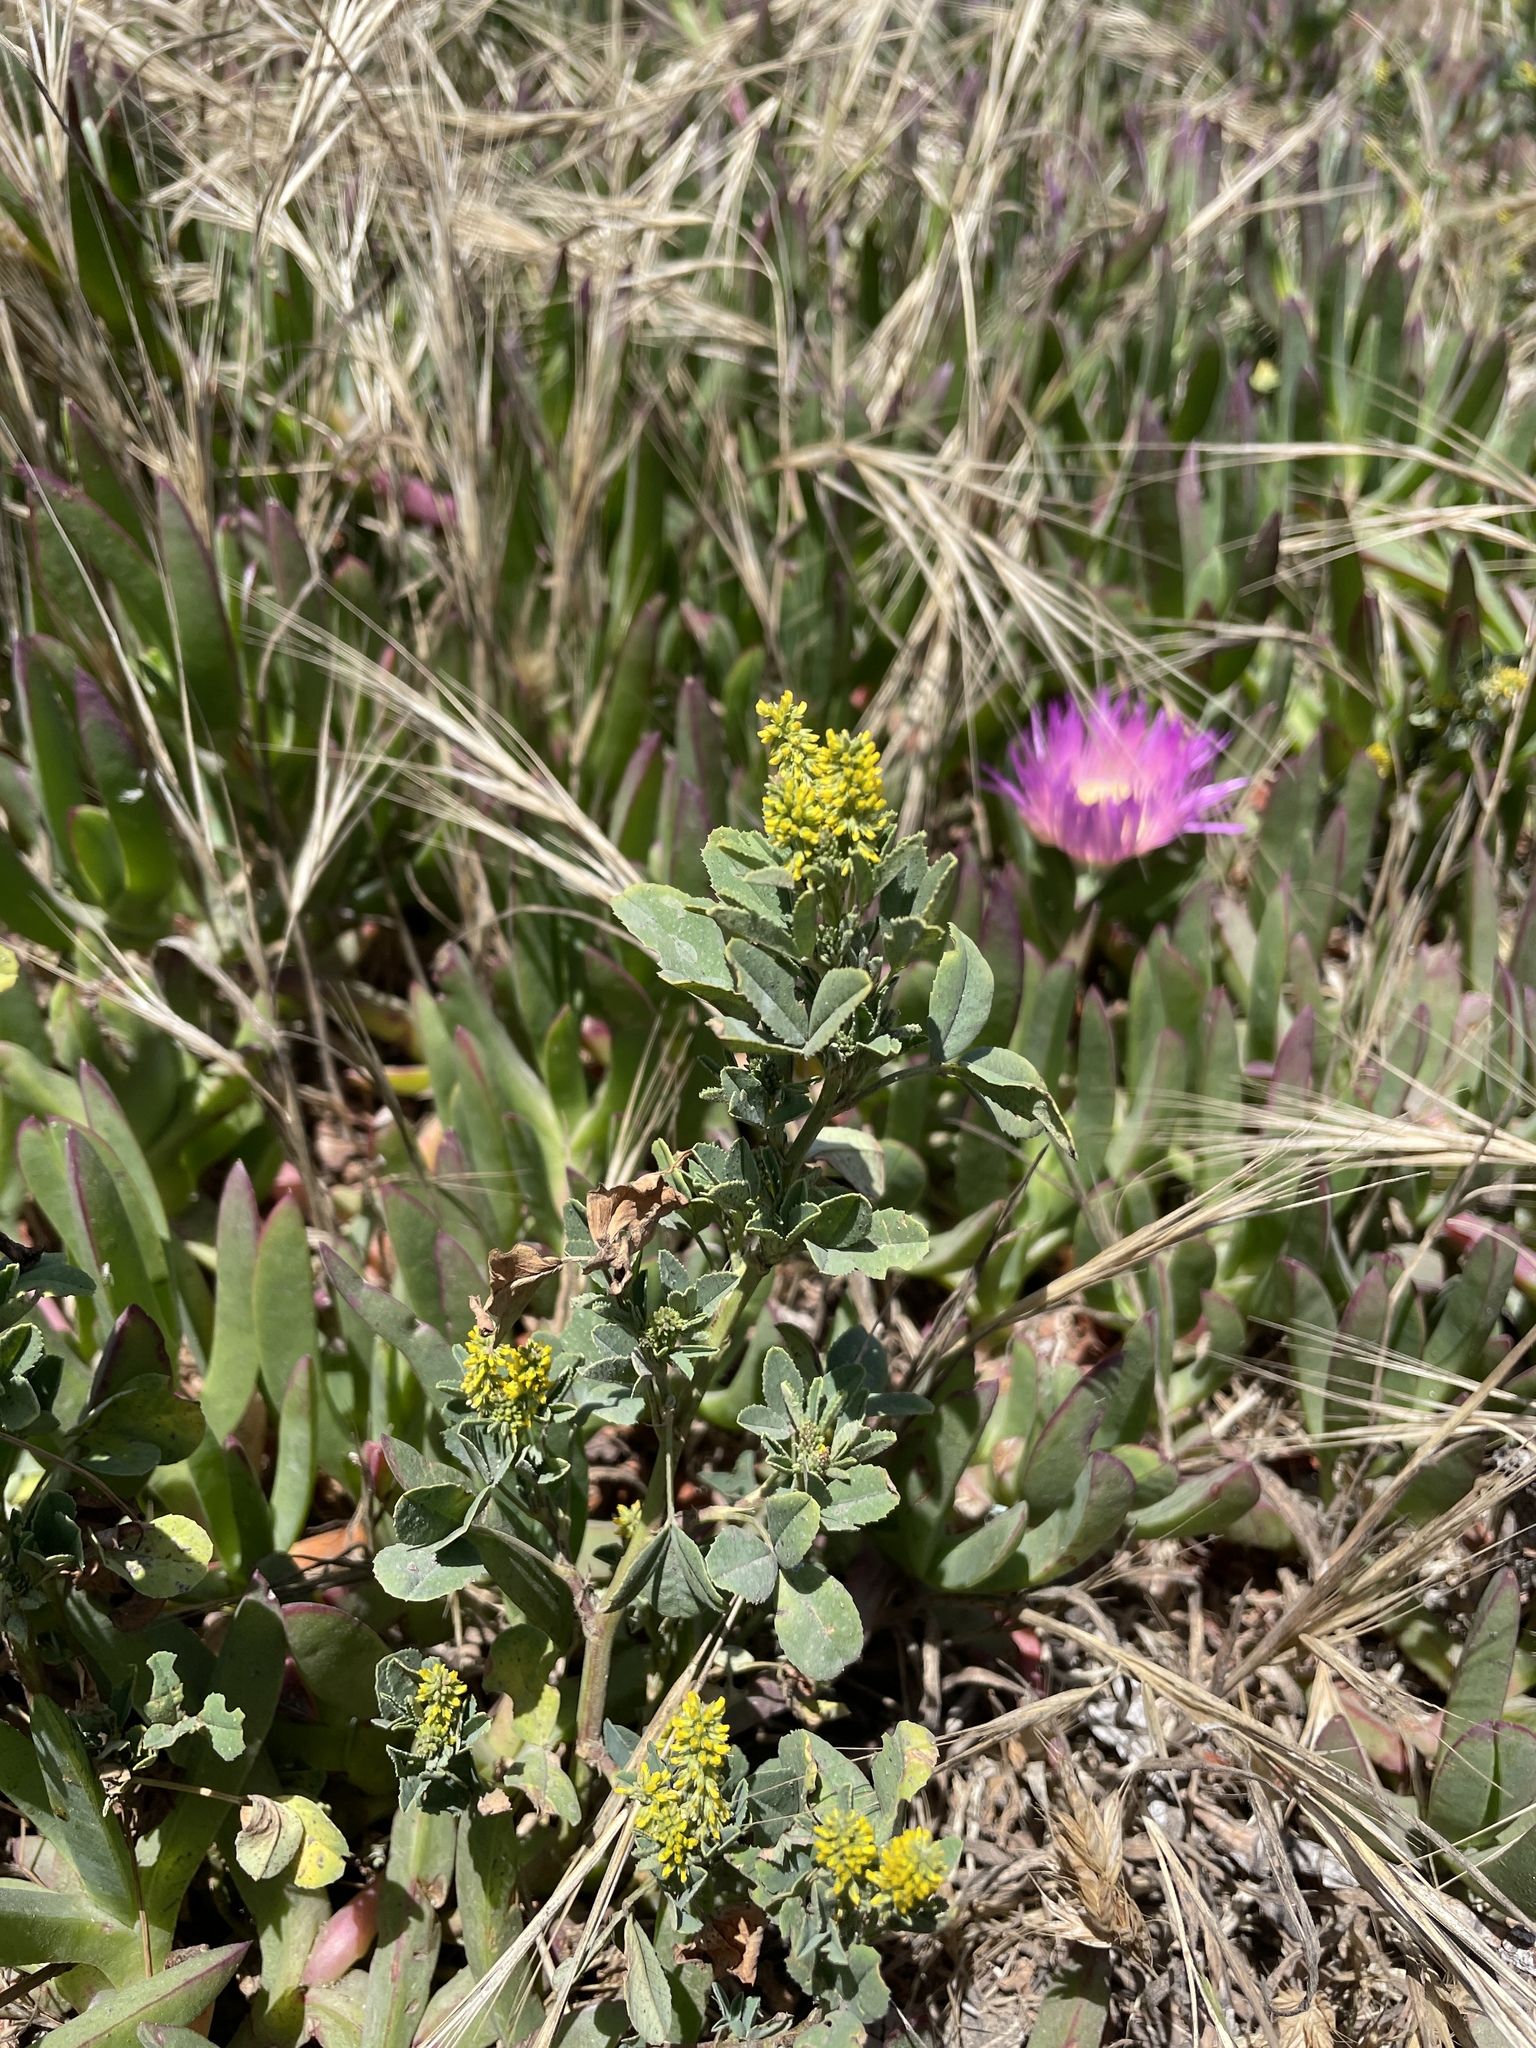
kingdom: Plantae
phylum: Tracheophyta
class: Magnoliopsida
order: Fabales
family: Fabaceae
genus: Melilotus
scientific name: Melilotus indicus
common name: Small melilot
